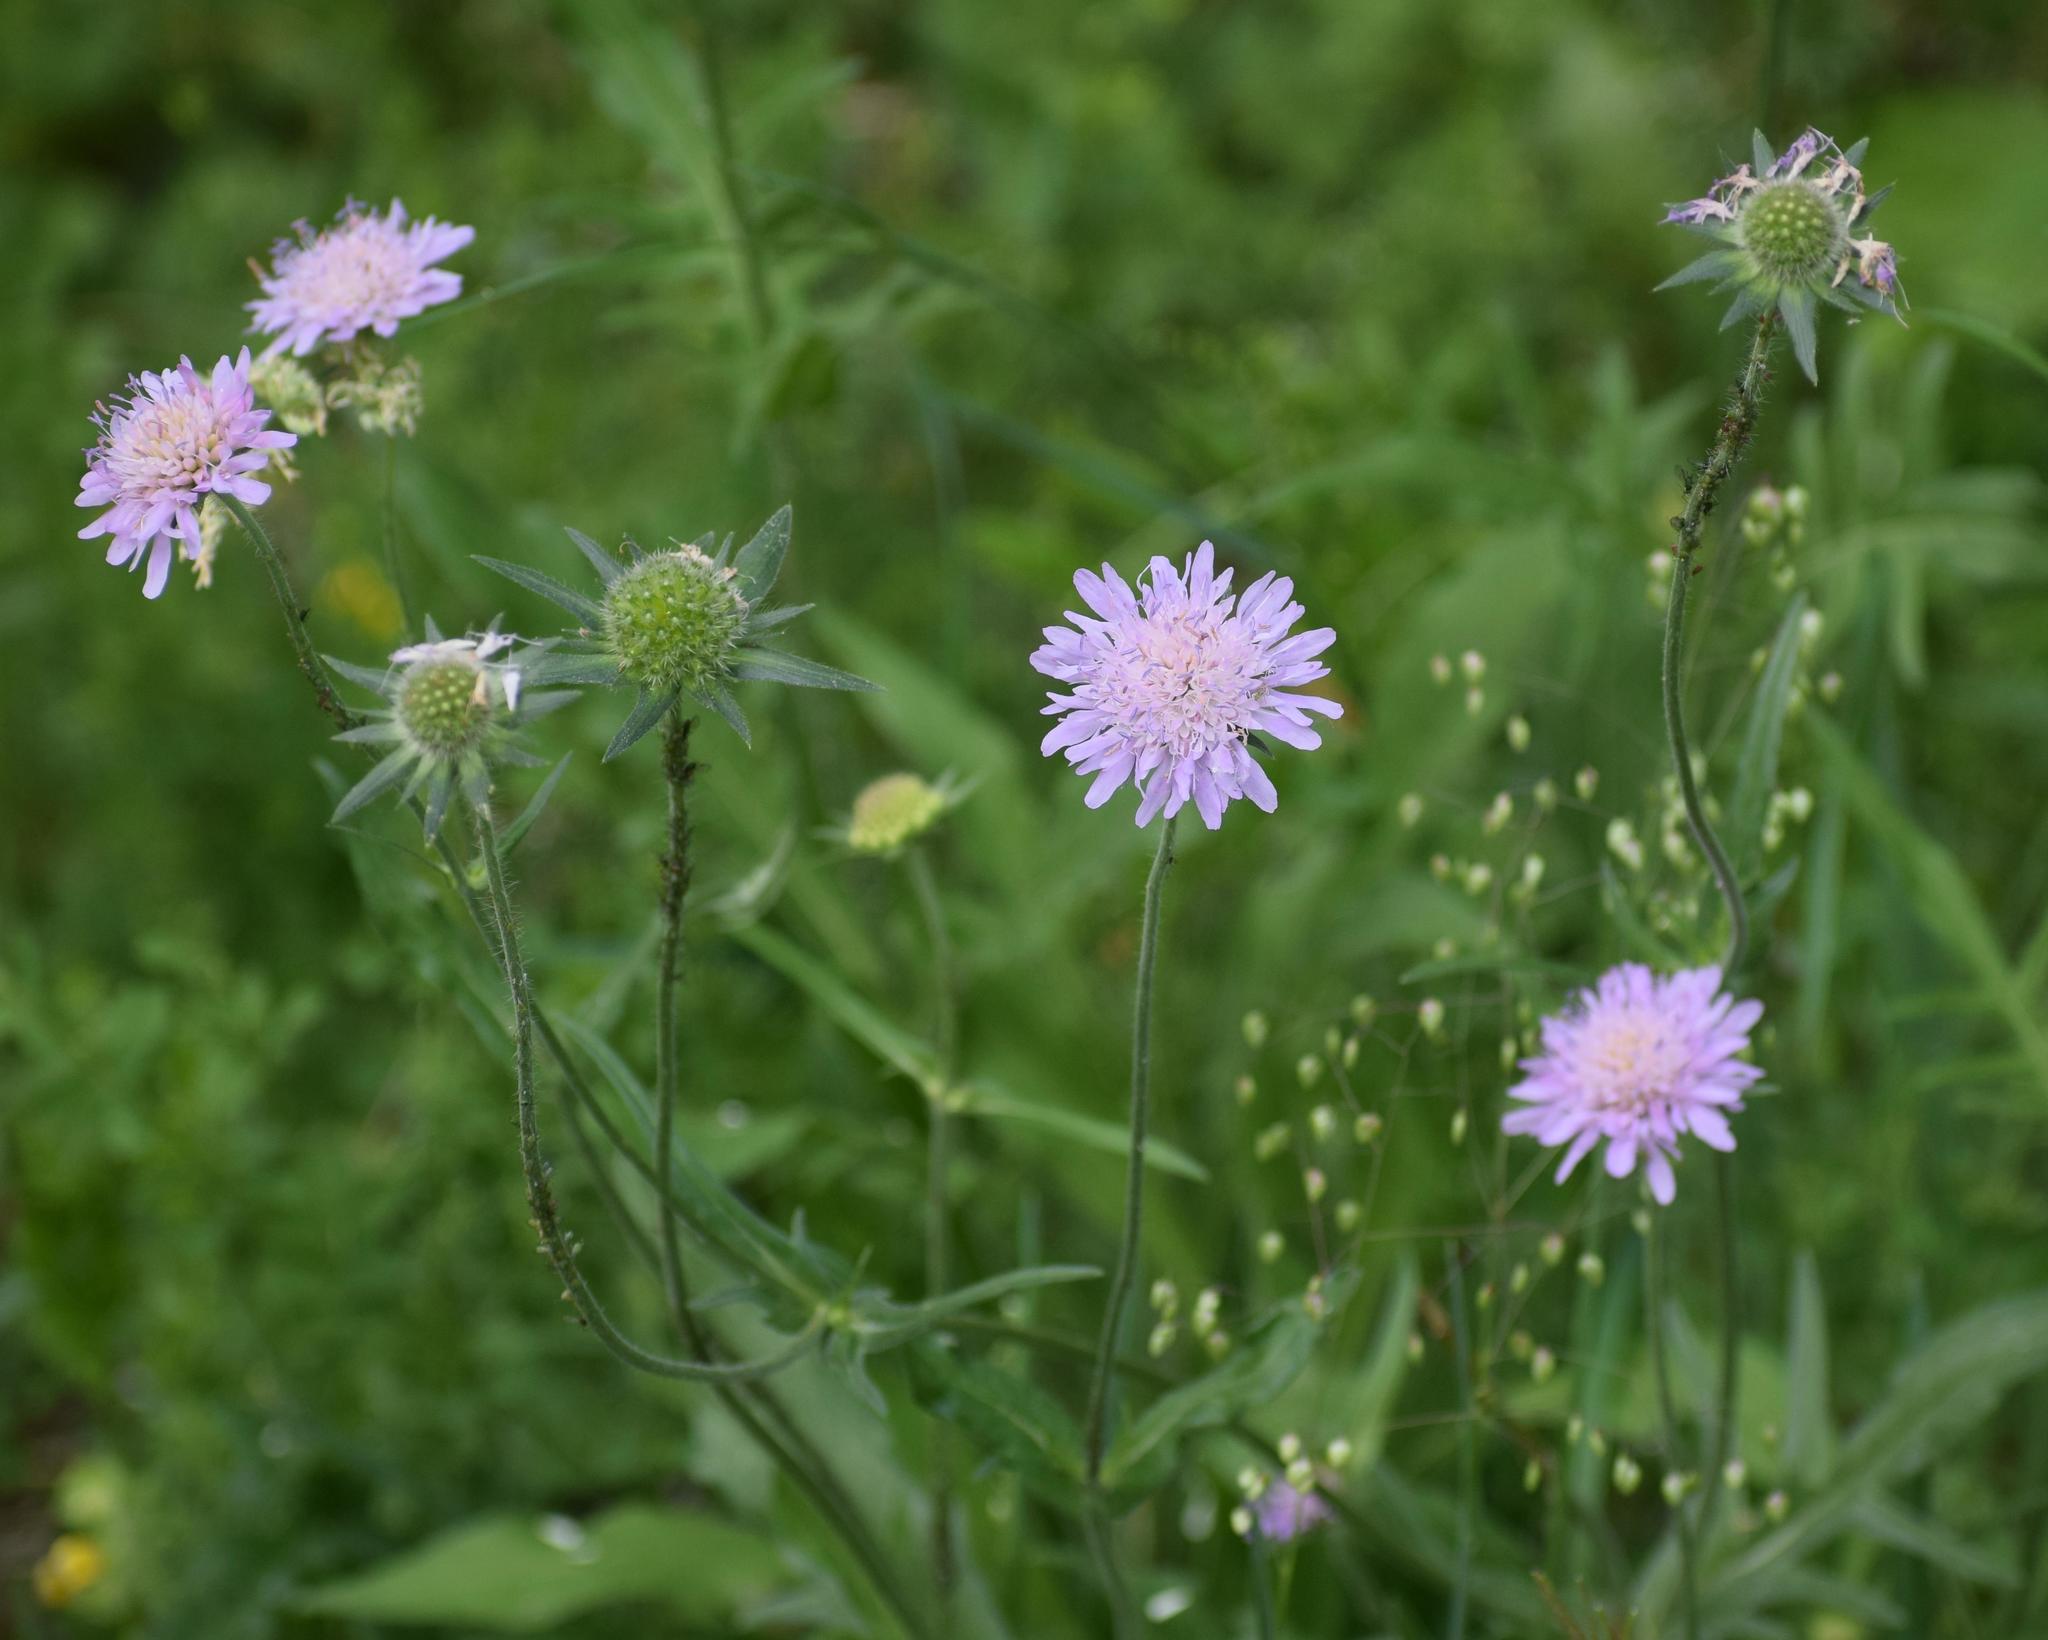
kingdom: Plantae
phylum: Tracheophyta
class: Magnoliopsida
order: Dipsacales
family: Caprifoliaceae
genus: Knautia
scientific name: Knautia arvensis
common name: Field scabiosa
